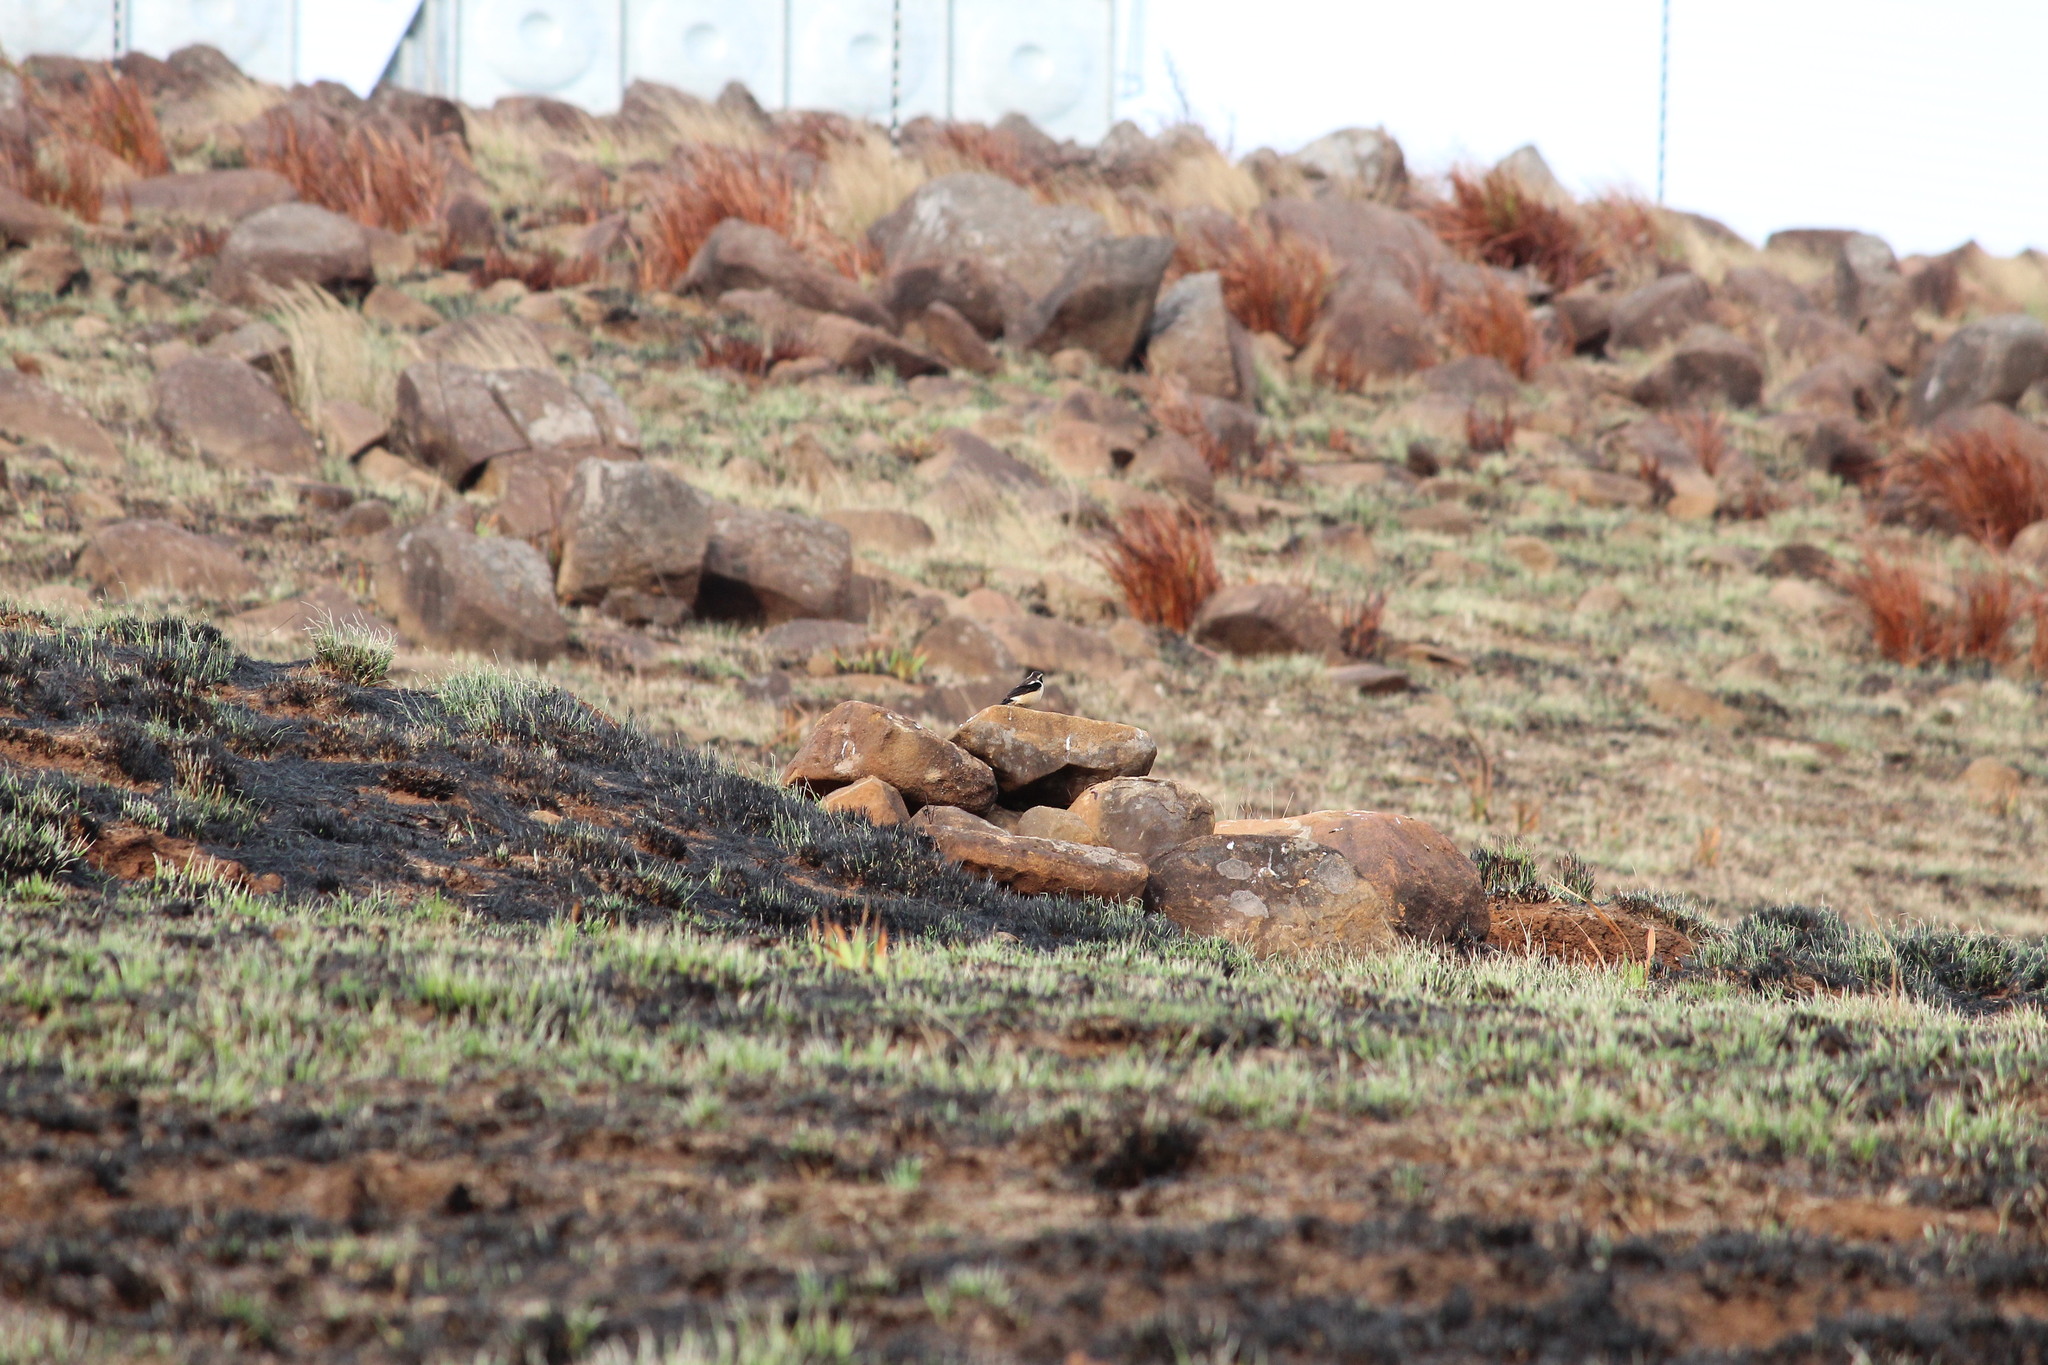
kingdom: Animalia
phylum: Chordata
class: Aves
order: Passeriformes
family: Muscicapidae
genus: Campicoloides
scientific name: Campicoloides bifasciatus
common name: Buff-streaked chat
